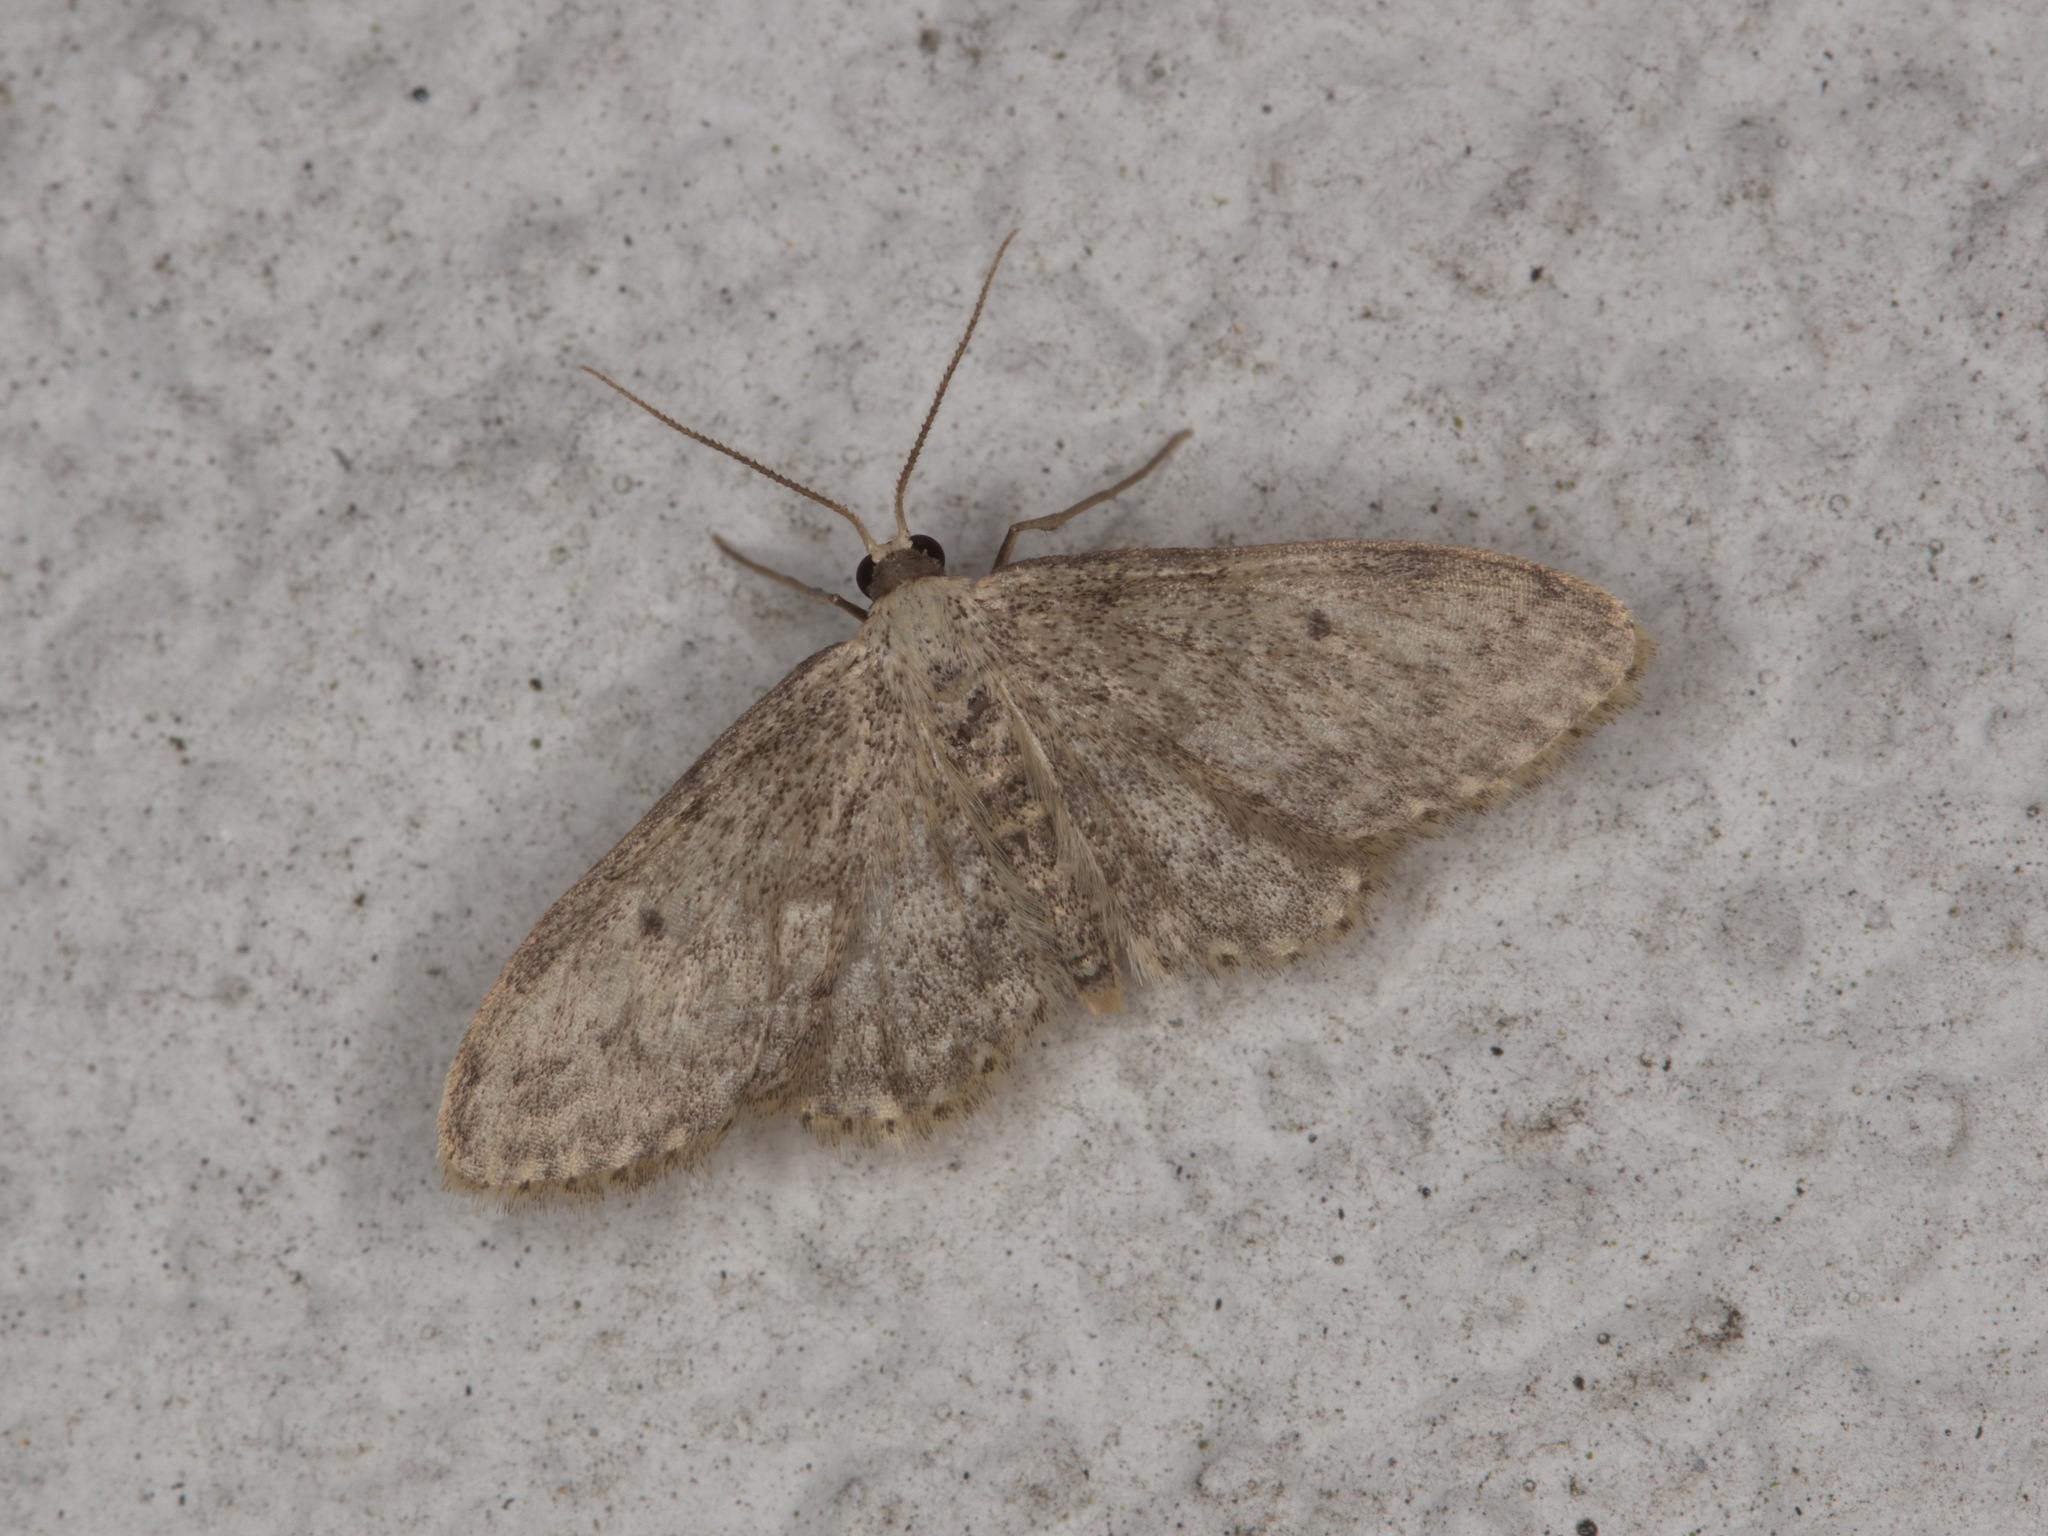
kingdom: Animalia
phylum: Arthropoda
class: Insecta
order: Lepidoptera
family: Geometridae
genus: Idaea
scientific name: Idaea seriata
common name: Small dusty wave
